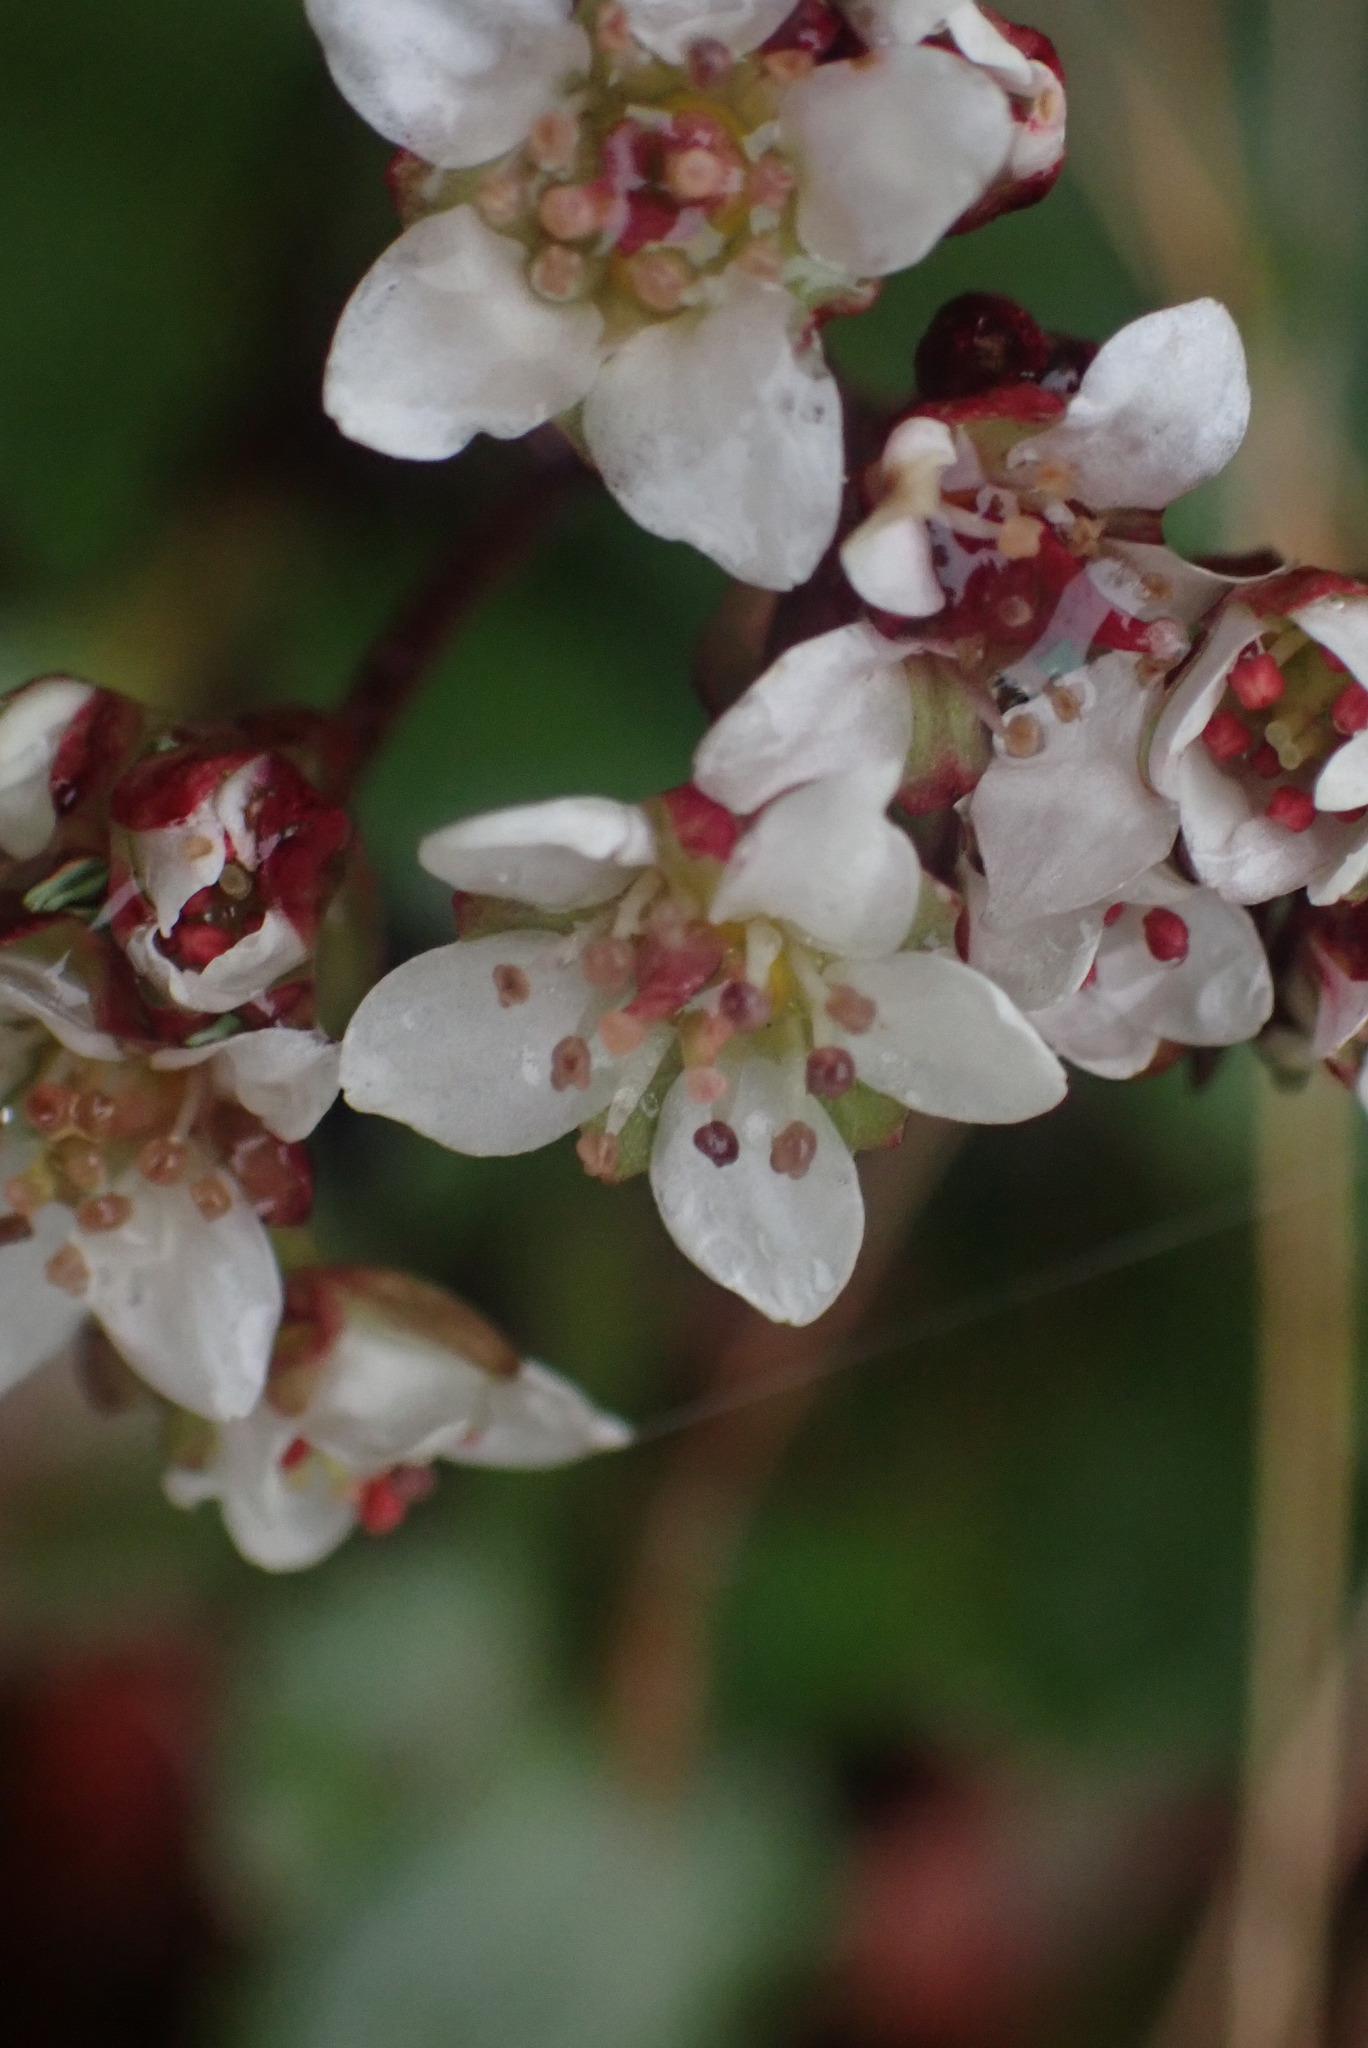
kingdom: Plantae
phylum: Tracheophyta
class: Magnoliopsida
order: Saxifragales
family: Saxifragaceae
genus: Micranthes
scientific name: Micranthes rufidula
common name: Rustyhair saxifrage
